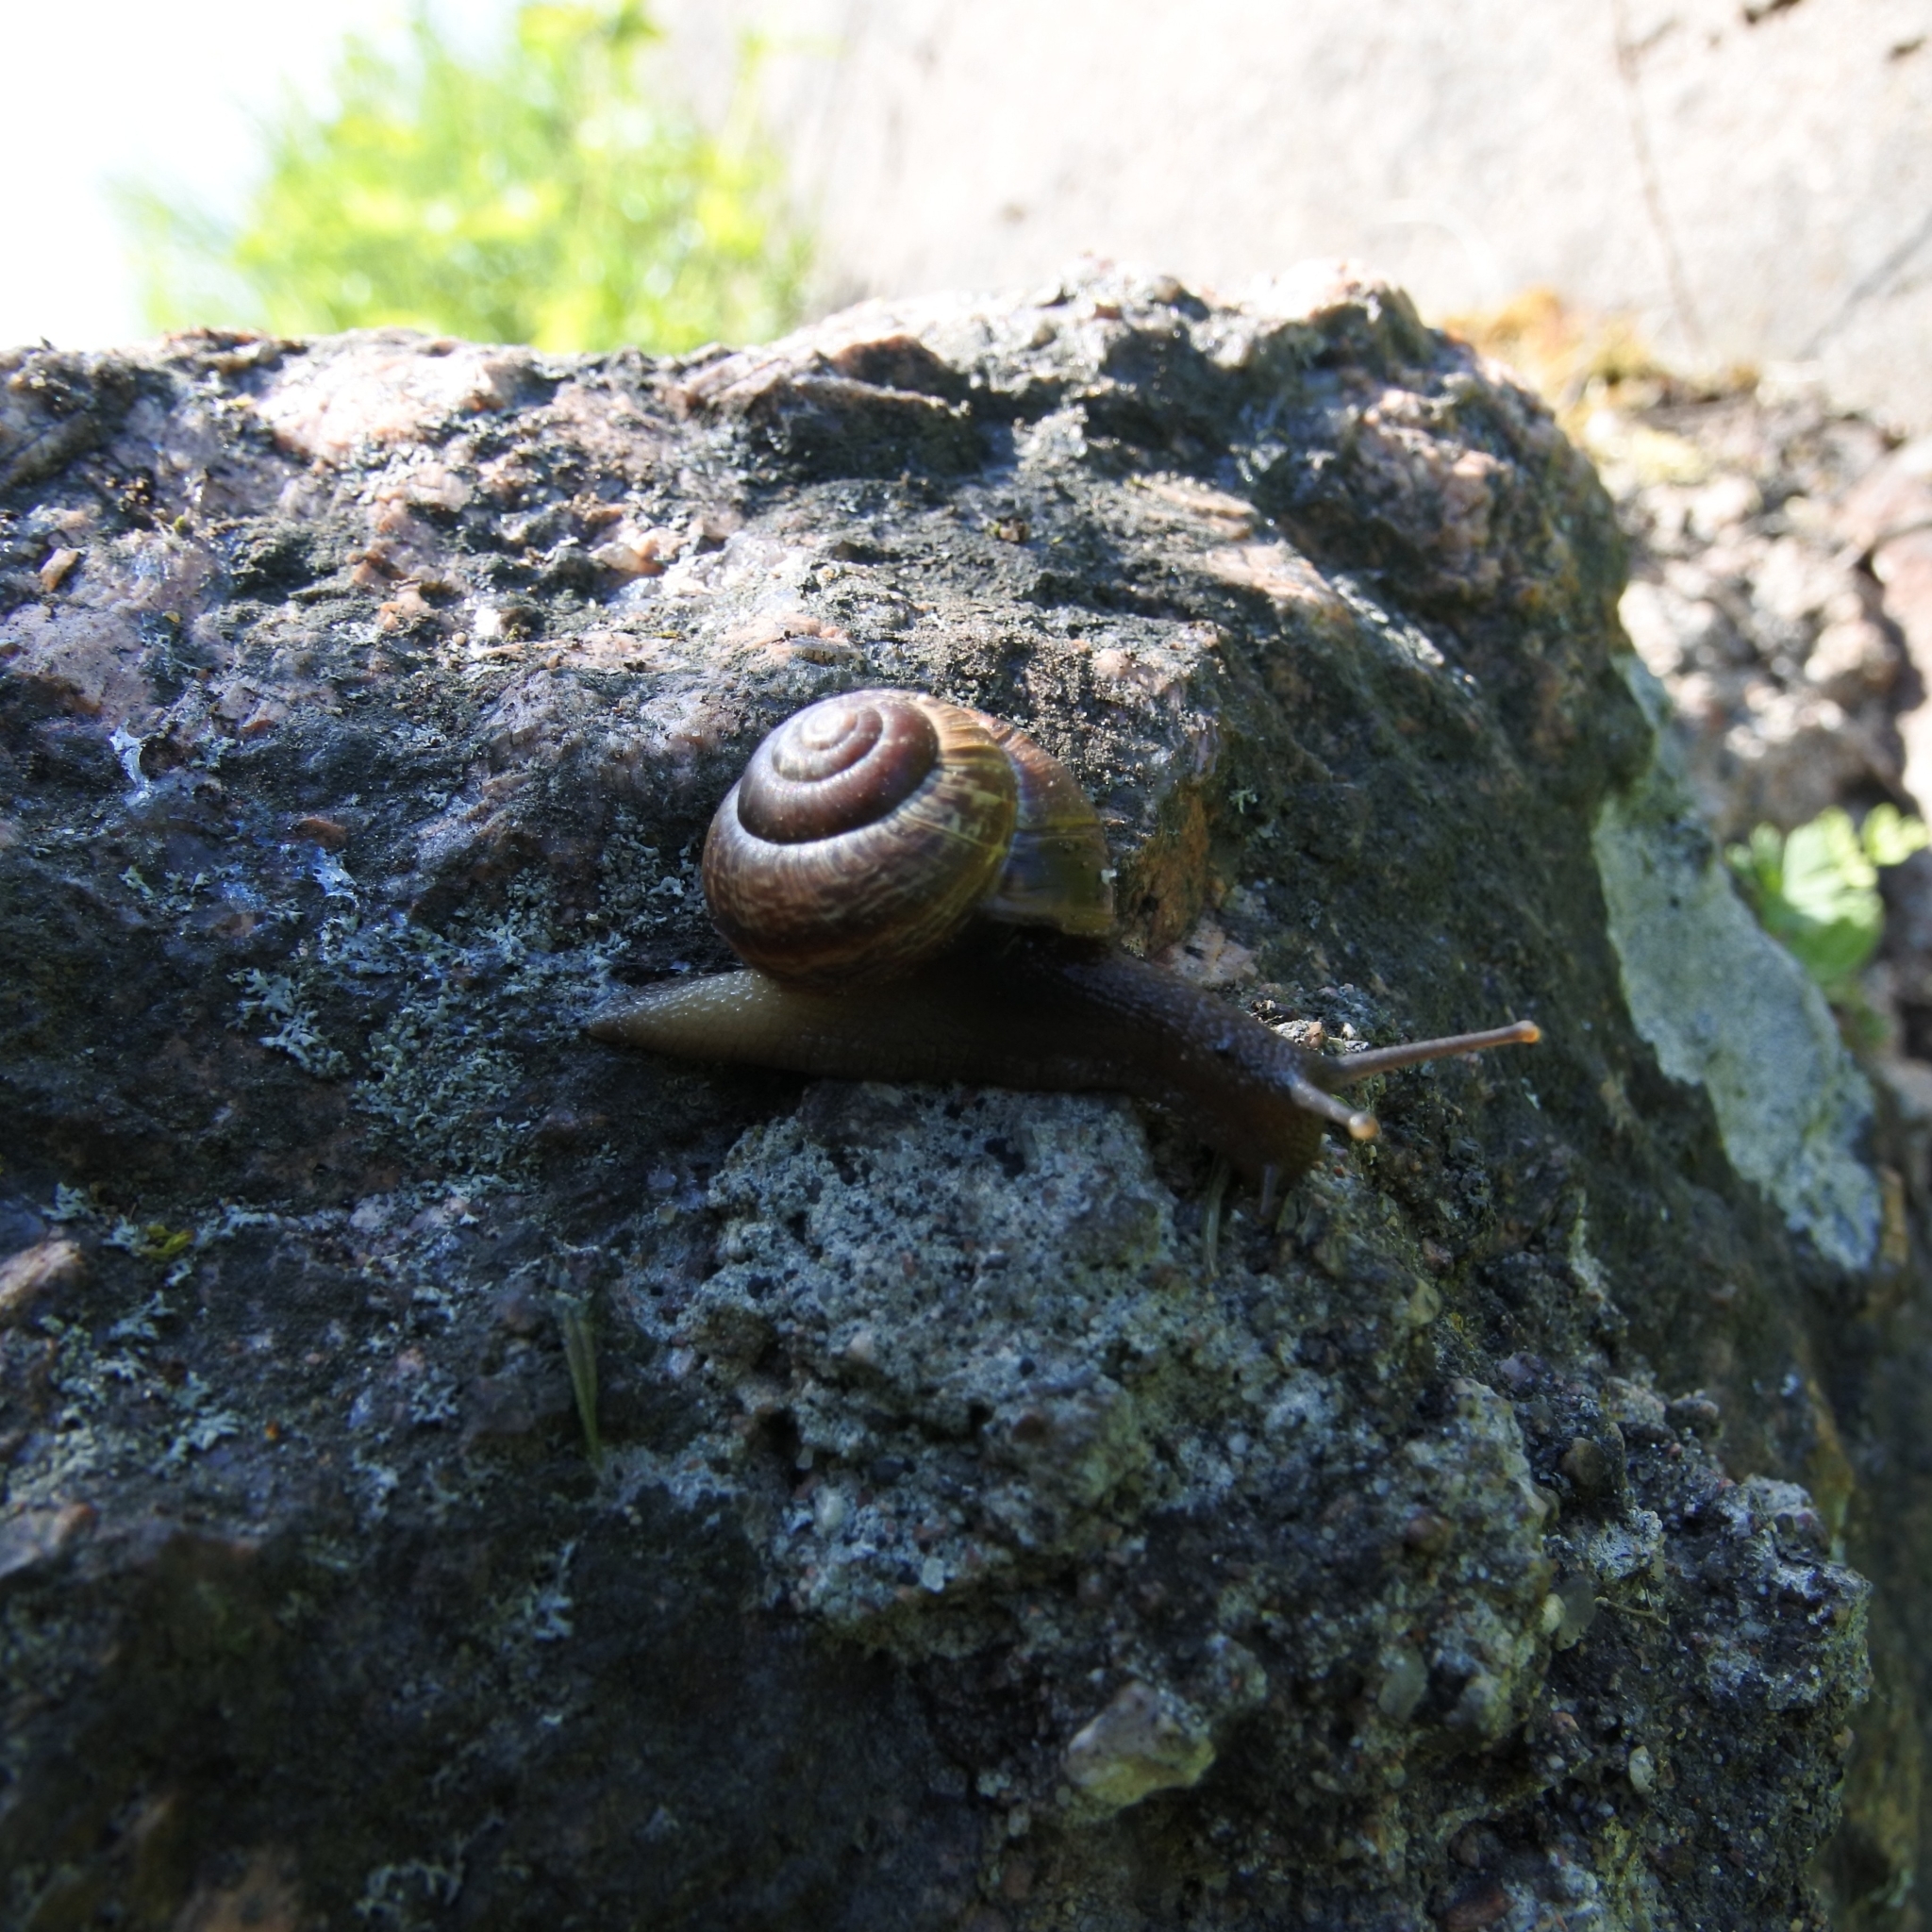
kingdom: Animalia
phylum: Mollusca
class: Gastropoda
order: Stylommatophora
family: Helicidae
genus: Arianta
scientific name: Arianta arbustorum
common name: Copse snail
